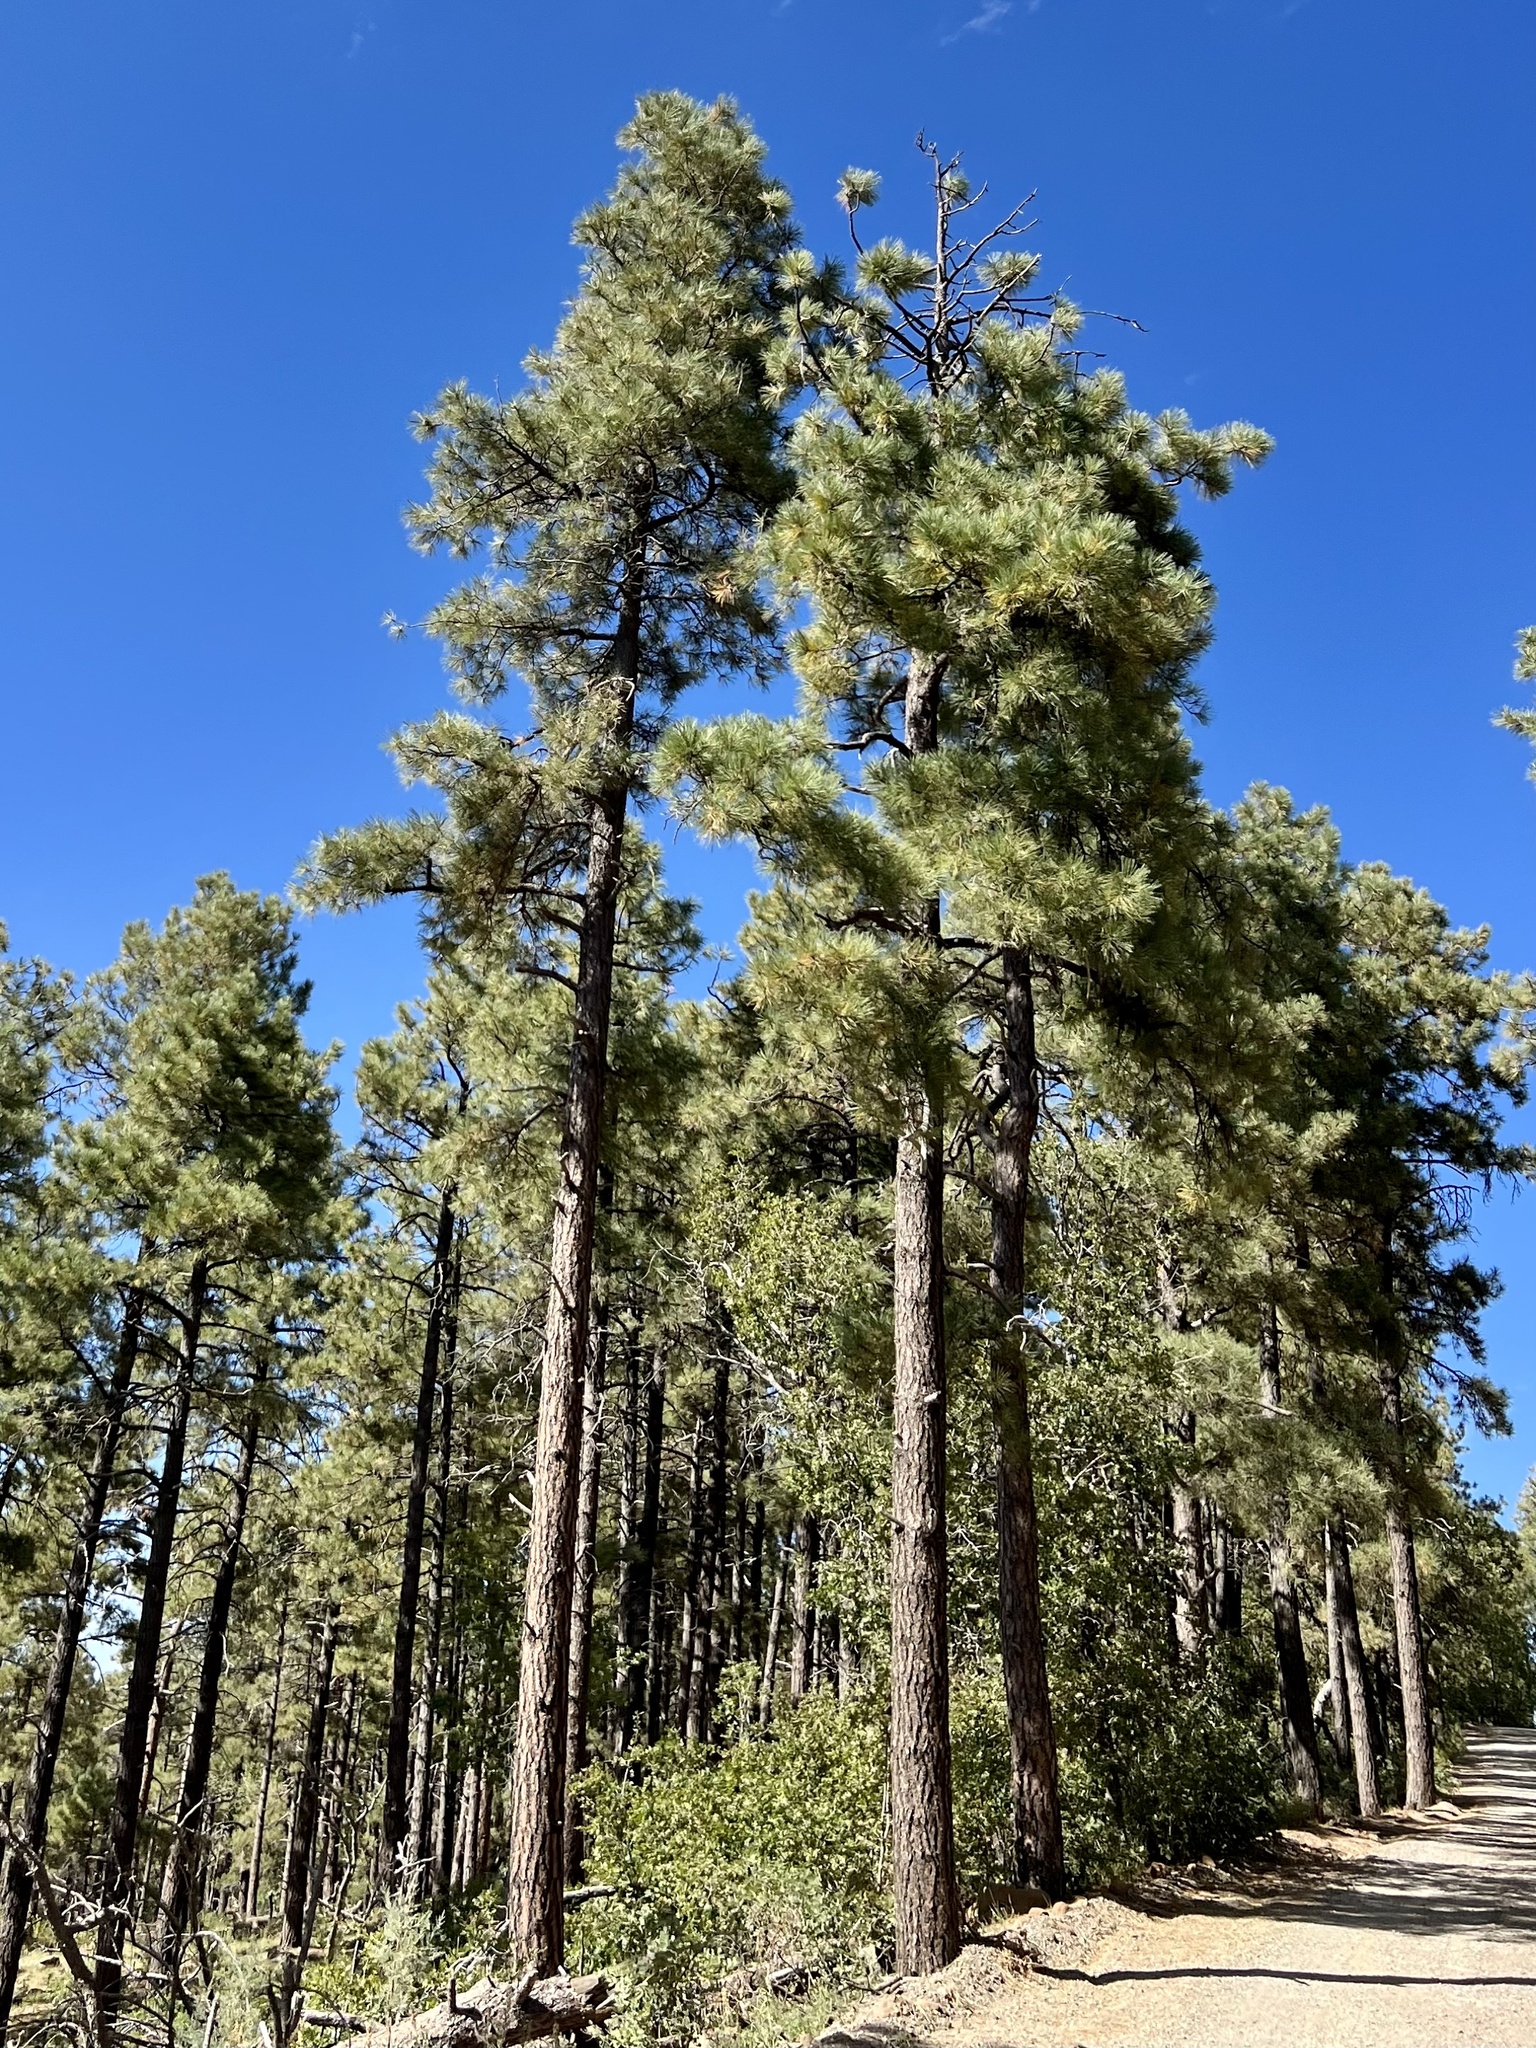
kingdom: Plantae
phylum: Tracheophyta
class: Pinopsida
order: Pinales
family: Pinaceae
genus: Pinus
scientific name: Pinus ponderosa
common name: Western yellow-pine
